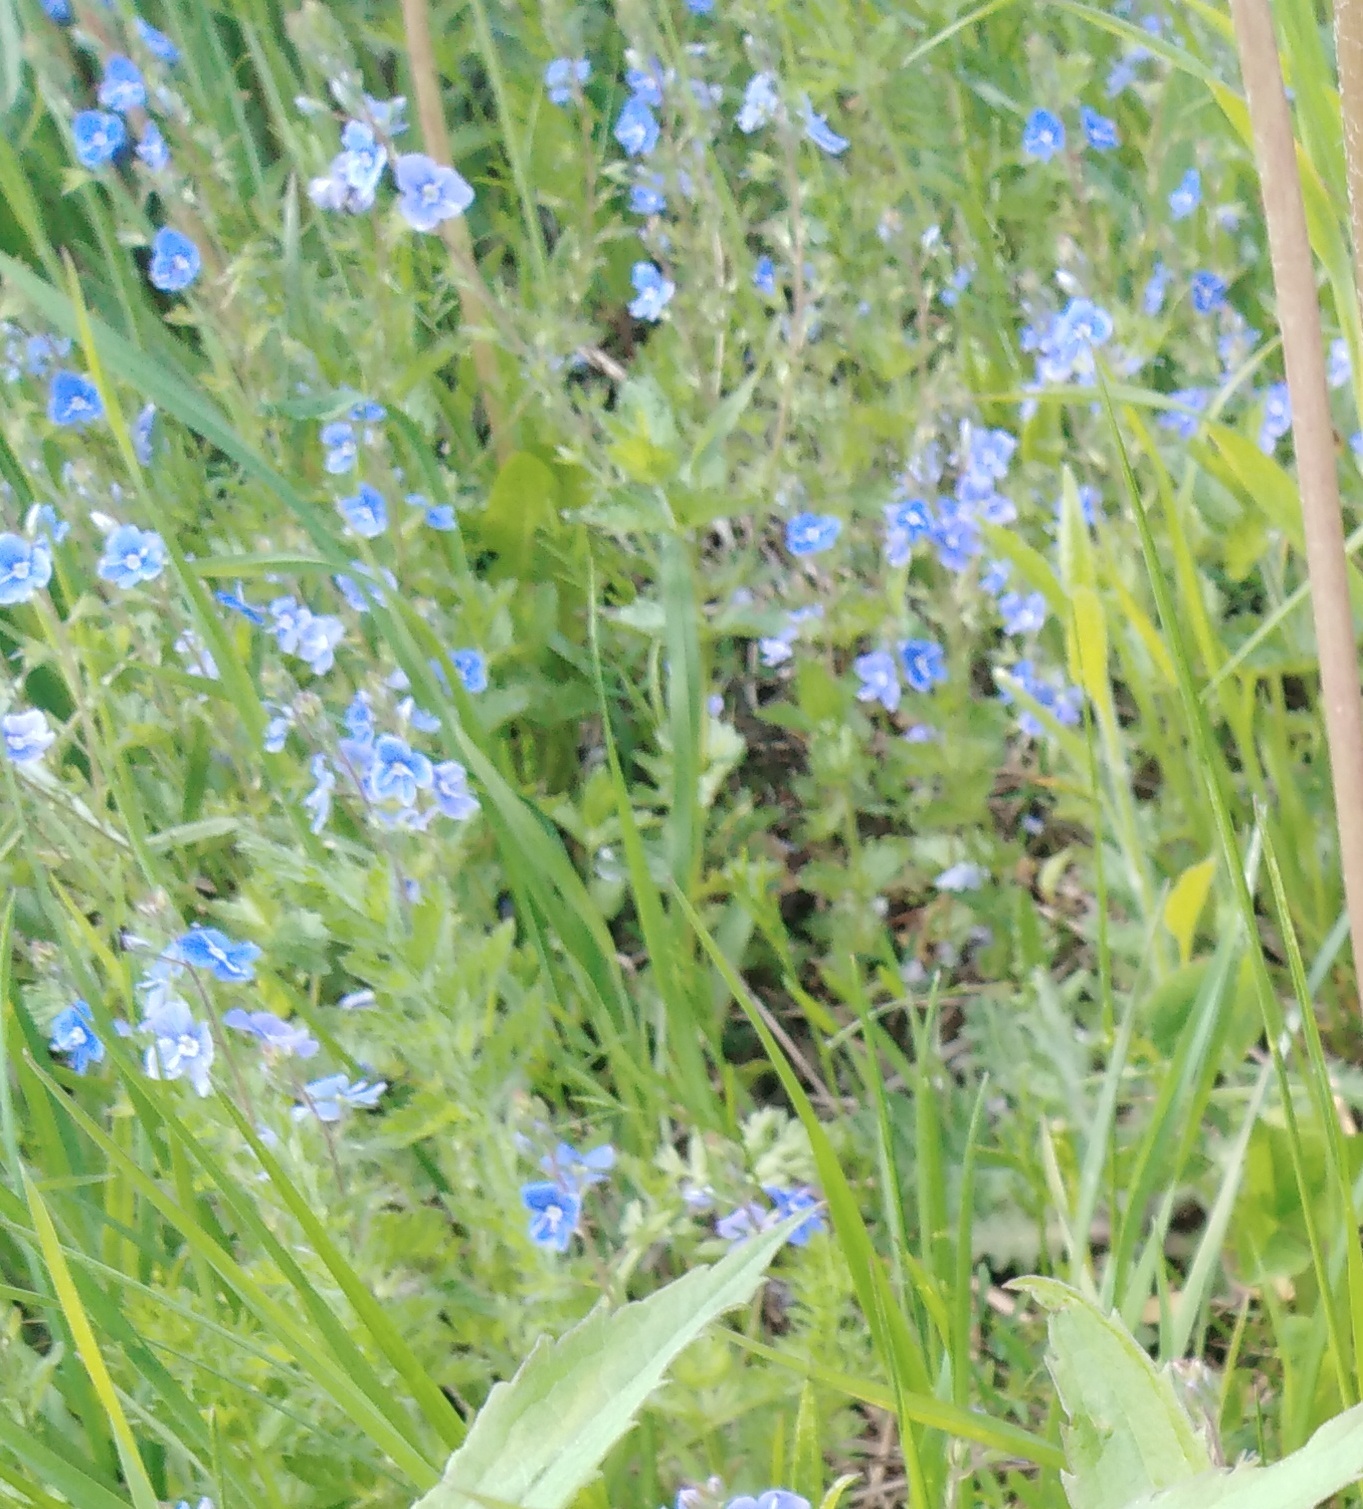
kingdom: Plantae
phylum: Tracheophyta
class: Magnoliopsida
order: Lamiales
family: Plantaginaceae
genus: Veronica
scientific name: Veronica chamaedrys
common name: Germander speedwell
